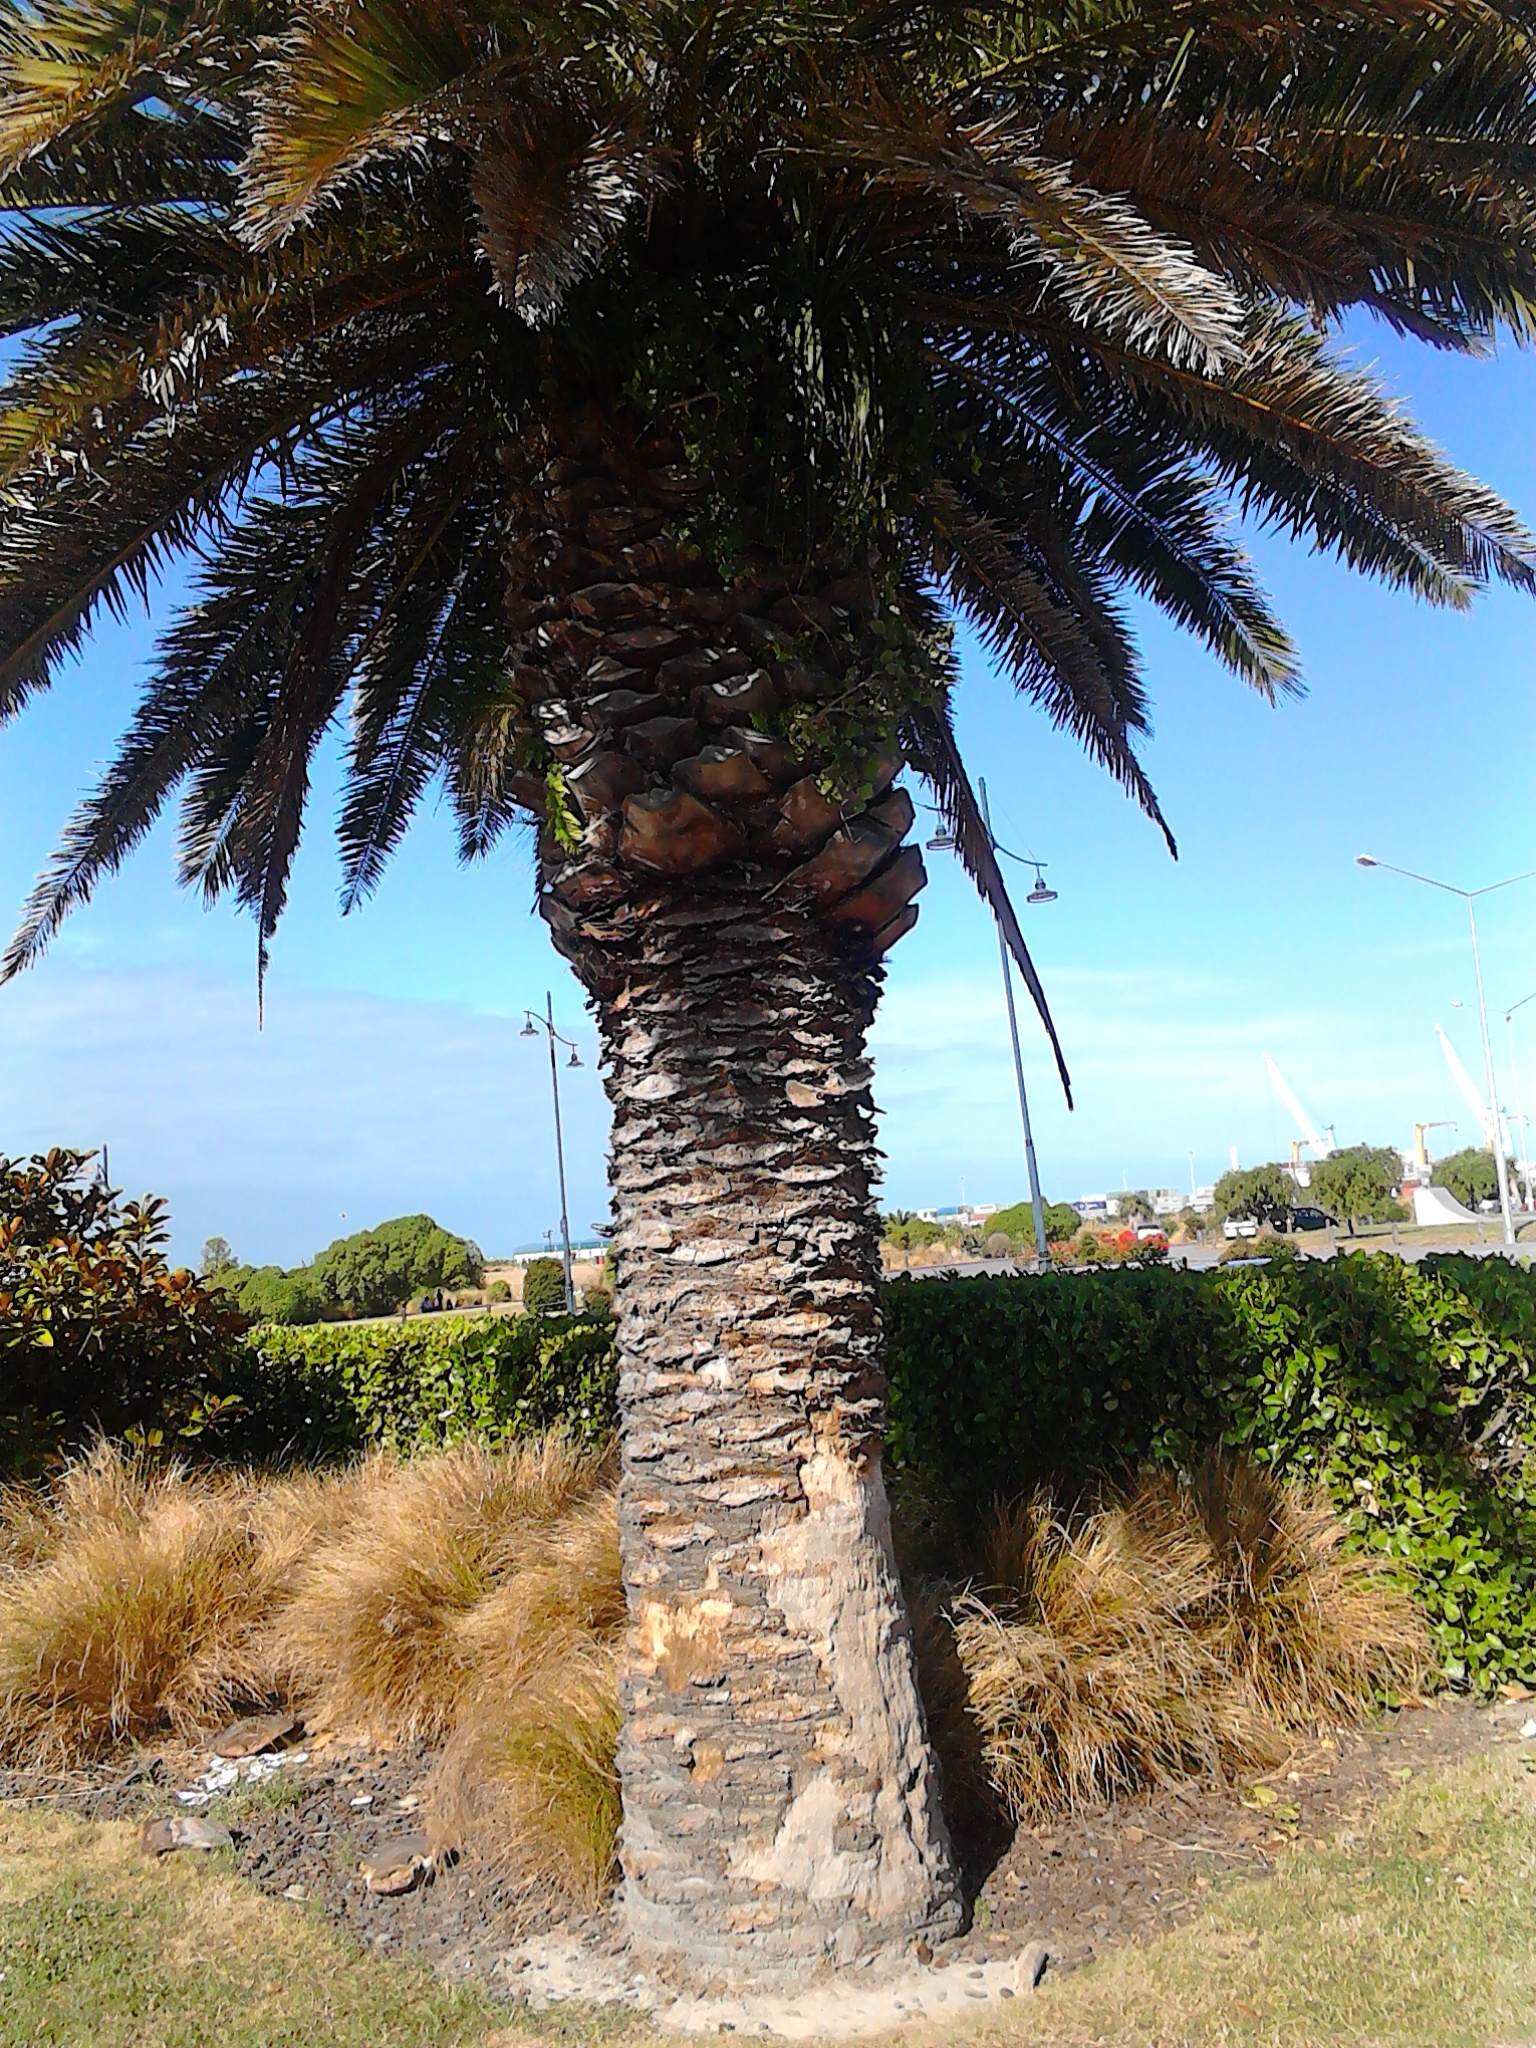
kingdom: Plantae
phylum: Tracheophyta
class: Magnoliopsida
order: Apiales
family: Araliaceae
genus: Hedera
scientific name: Hedera helix
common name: Ivy
